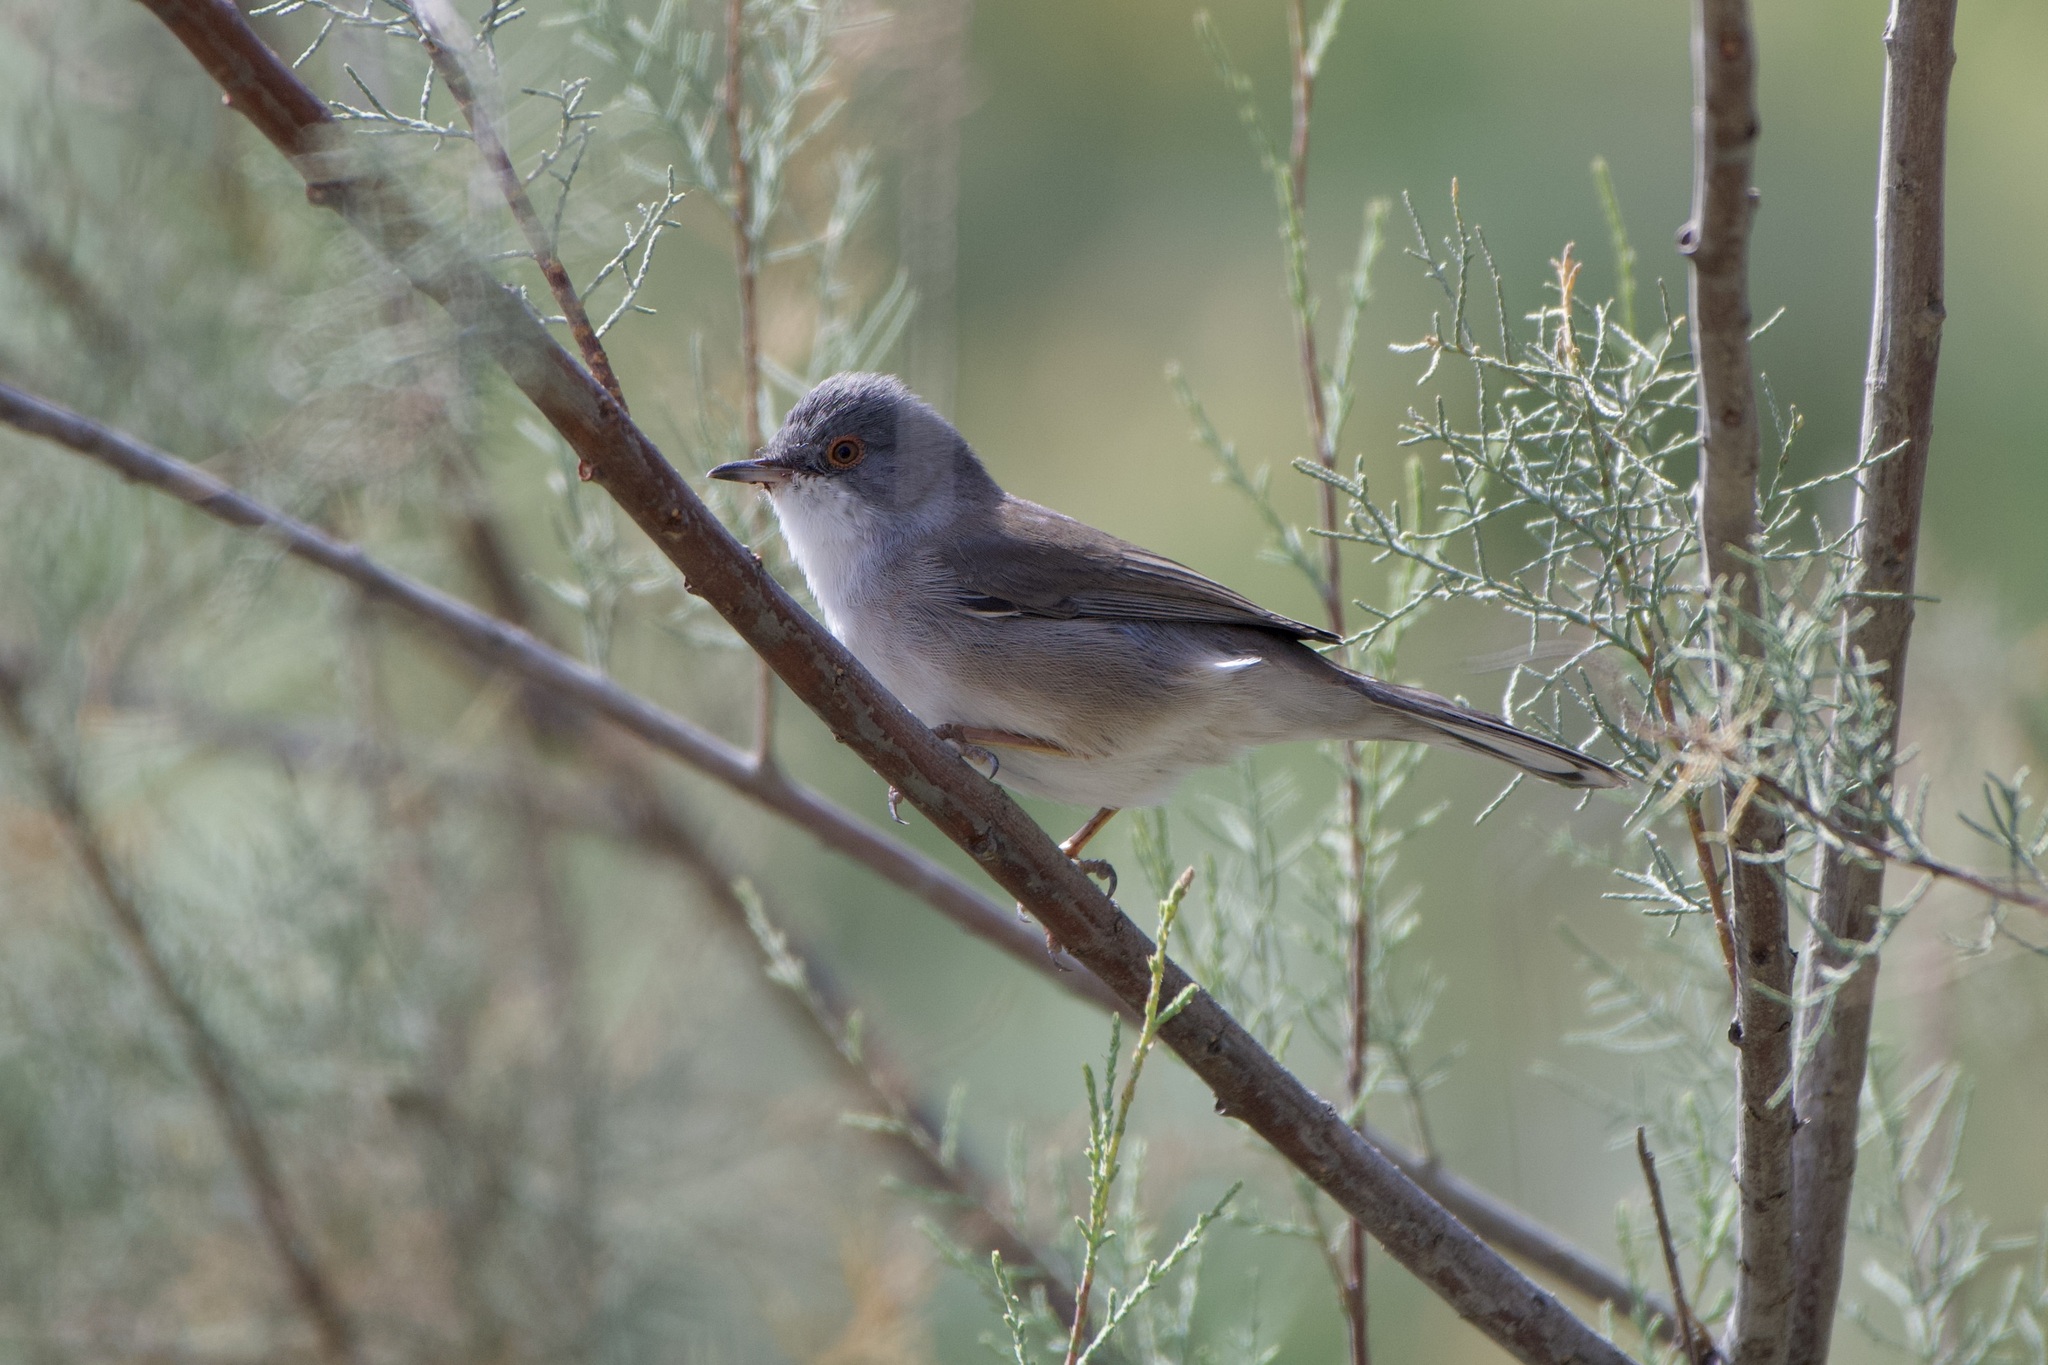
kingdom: Animalia
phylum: Chordata
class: Aves
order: Passeriformes
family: Sylviidae
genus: Curruca
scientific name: Curruca melanocephala
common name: Sardinian warbler
